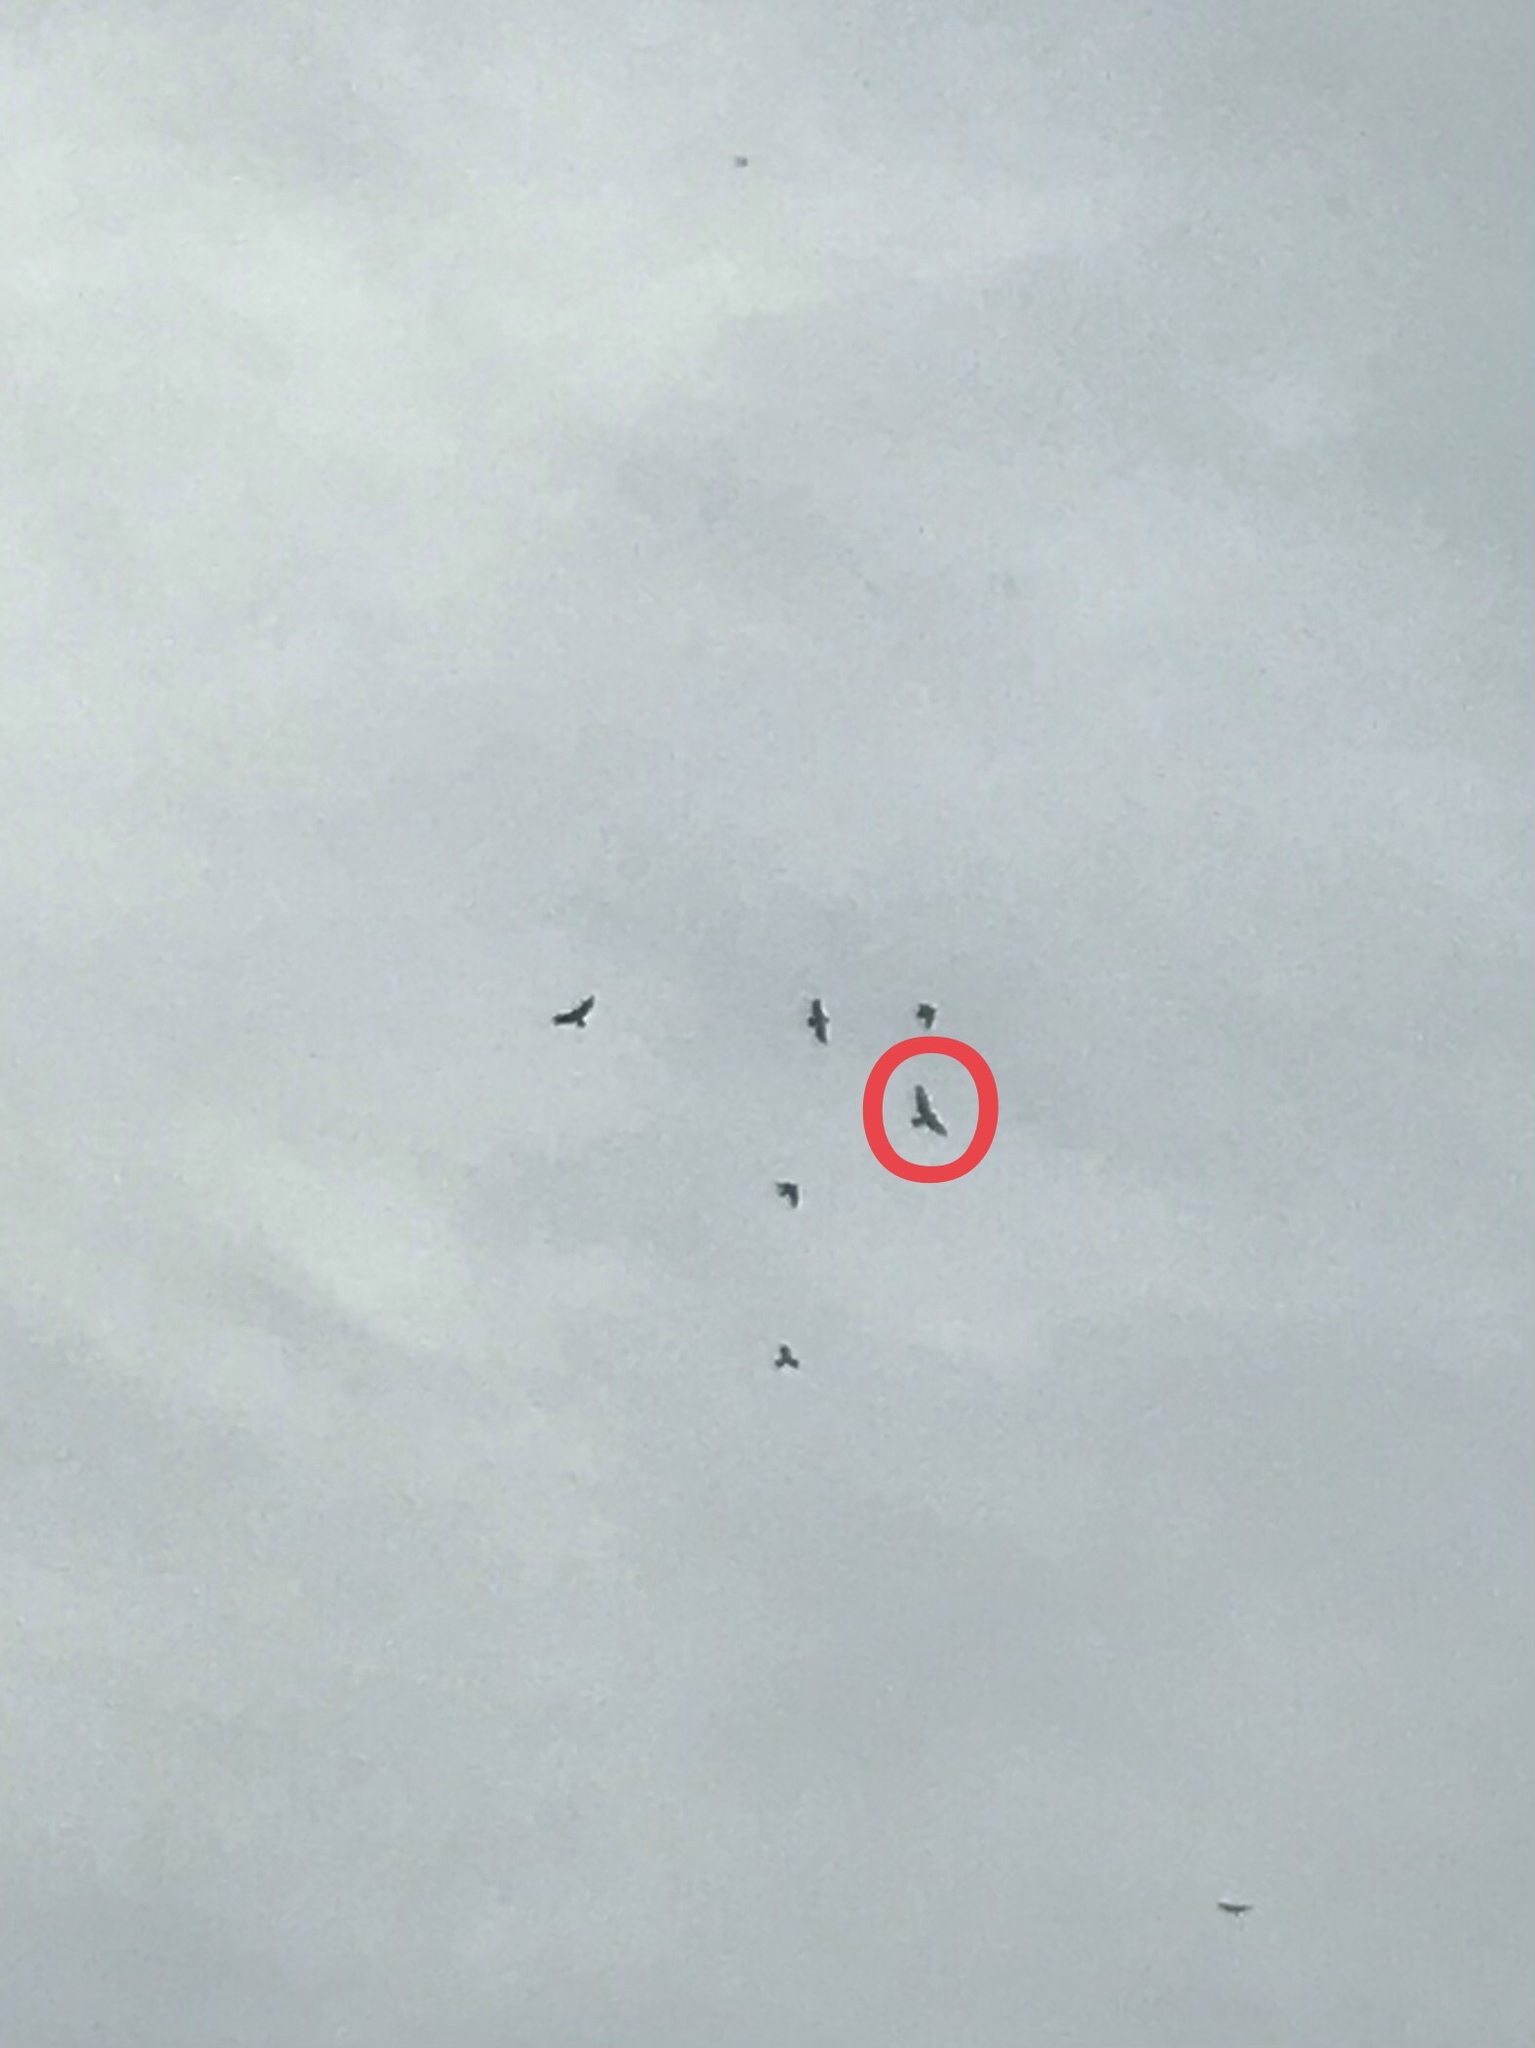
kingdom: Animalia
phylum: Chordata
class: Aves
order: Accipitriformes
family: Accipitridae
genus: Buteo
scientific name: Buteo buteo
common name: Common buzzard
